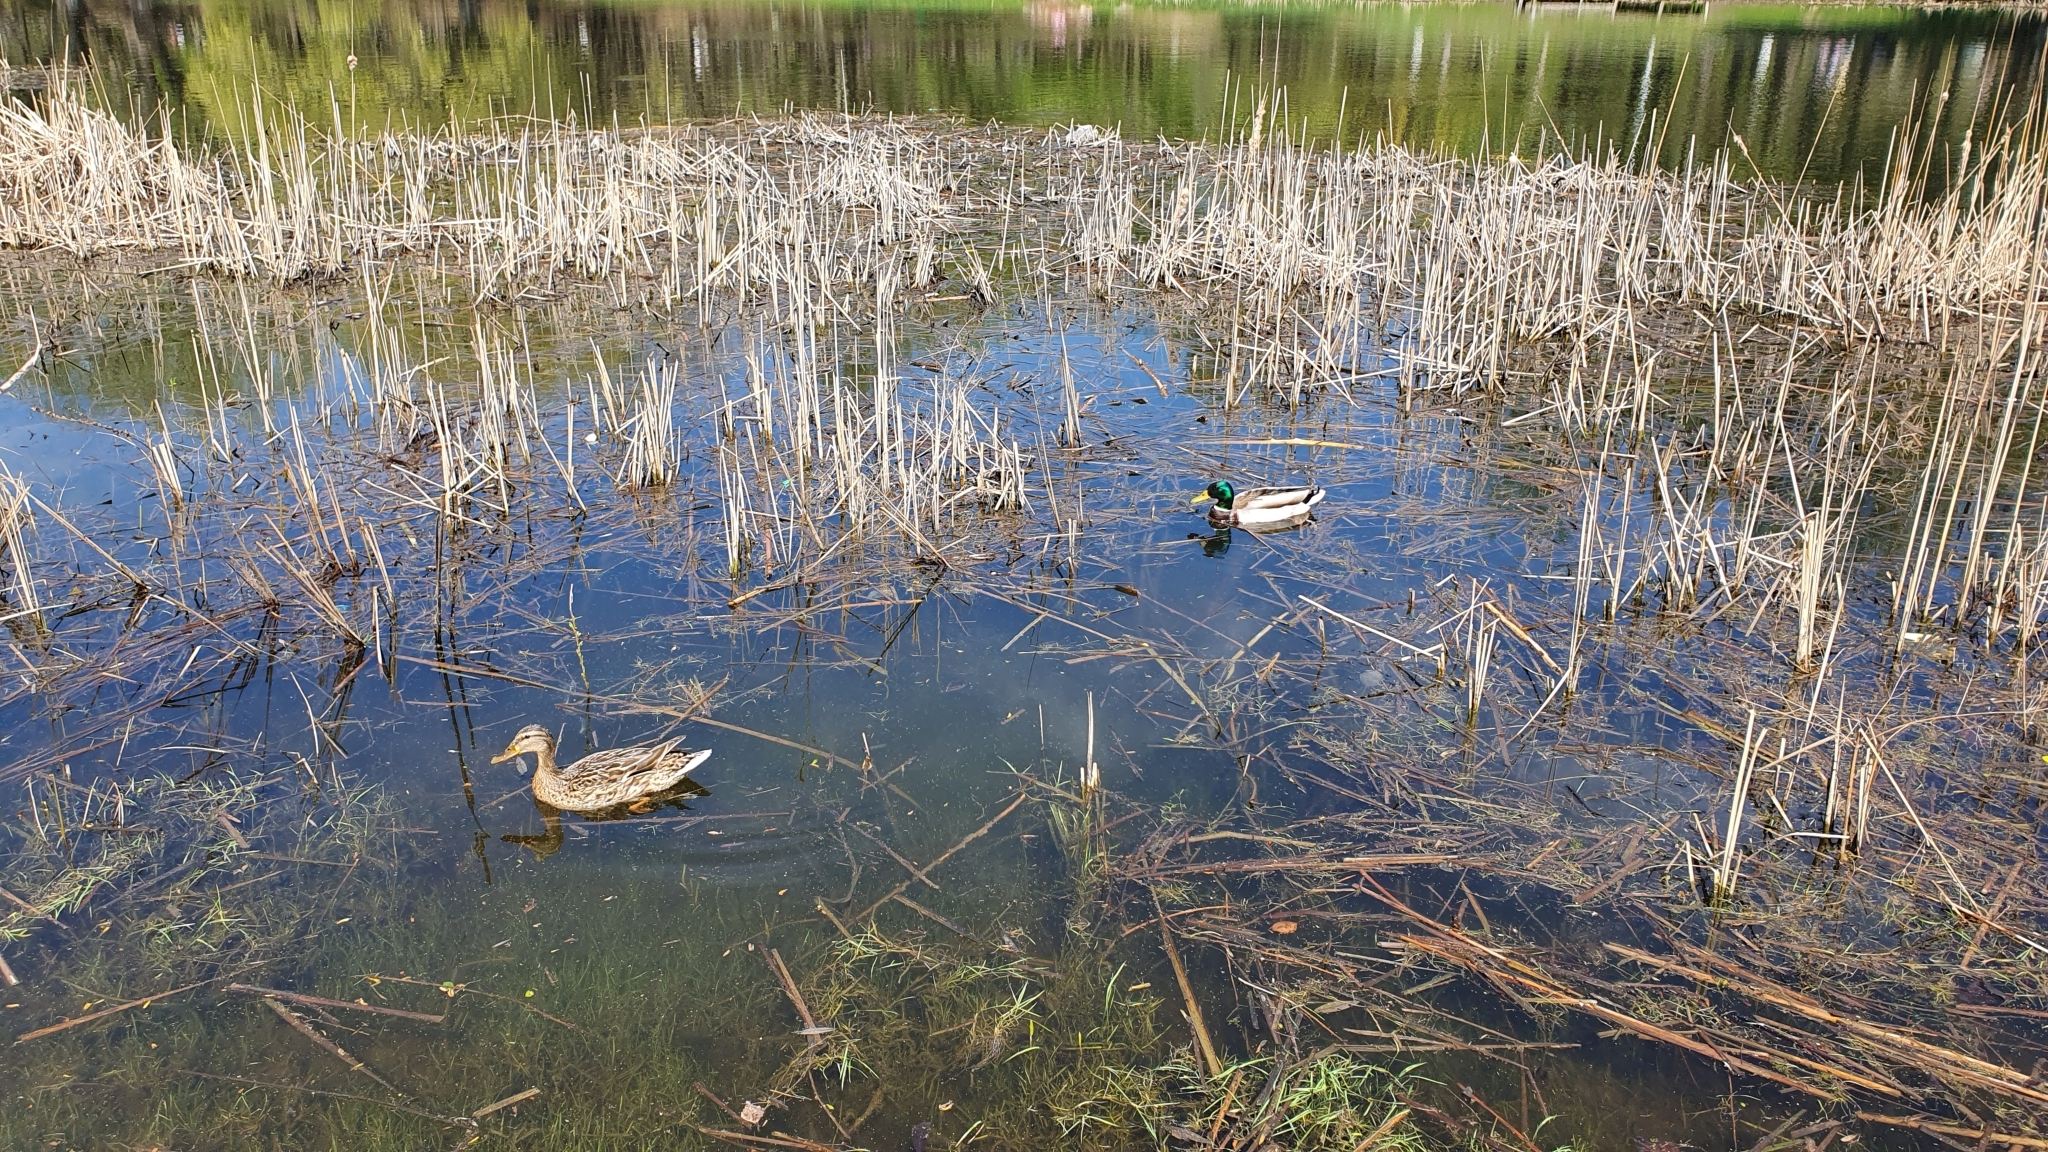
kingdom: Animalia
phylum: Chordata
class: Aves
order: Anseriformes
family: Anatidae
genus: Anas
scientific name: Anas platyrhynchos
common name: Mallard
